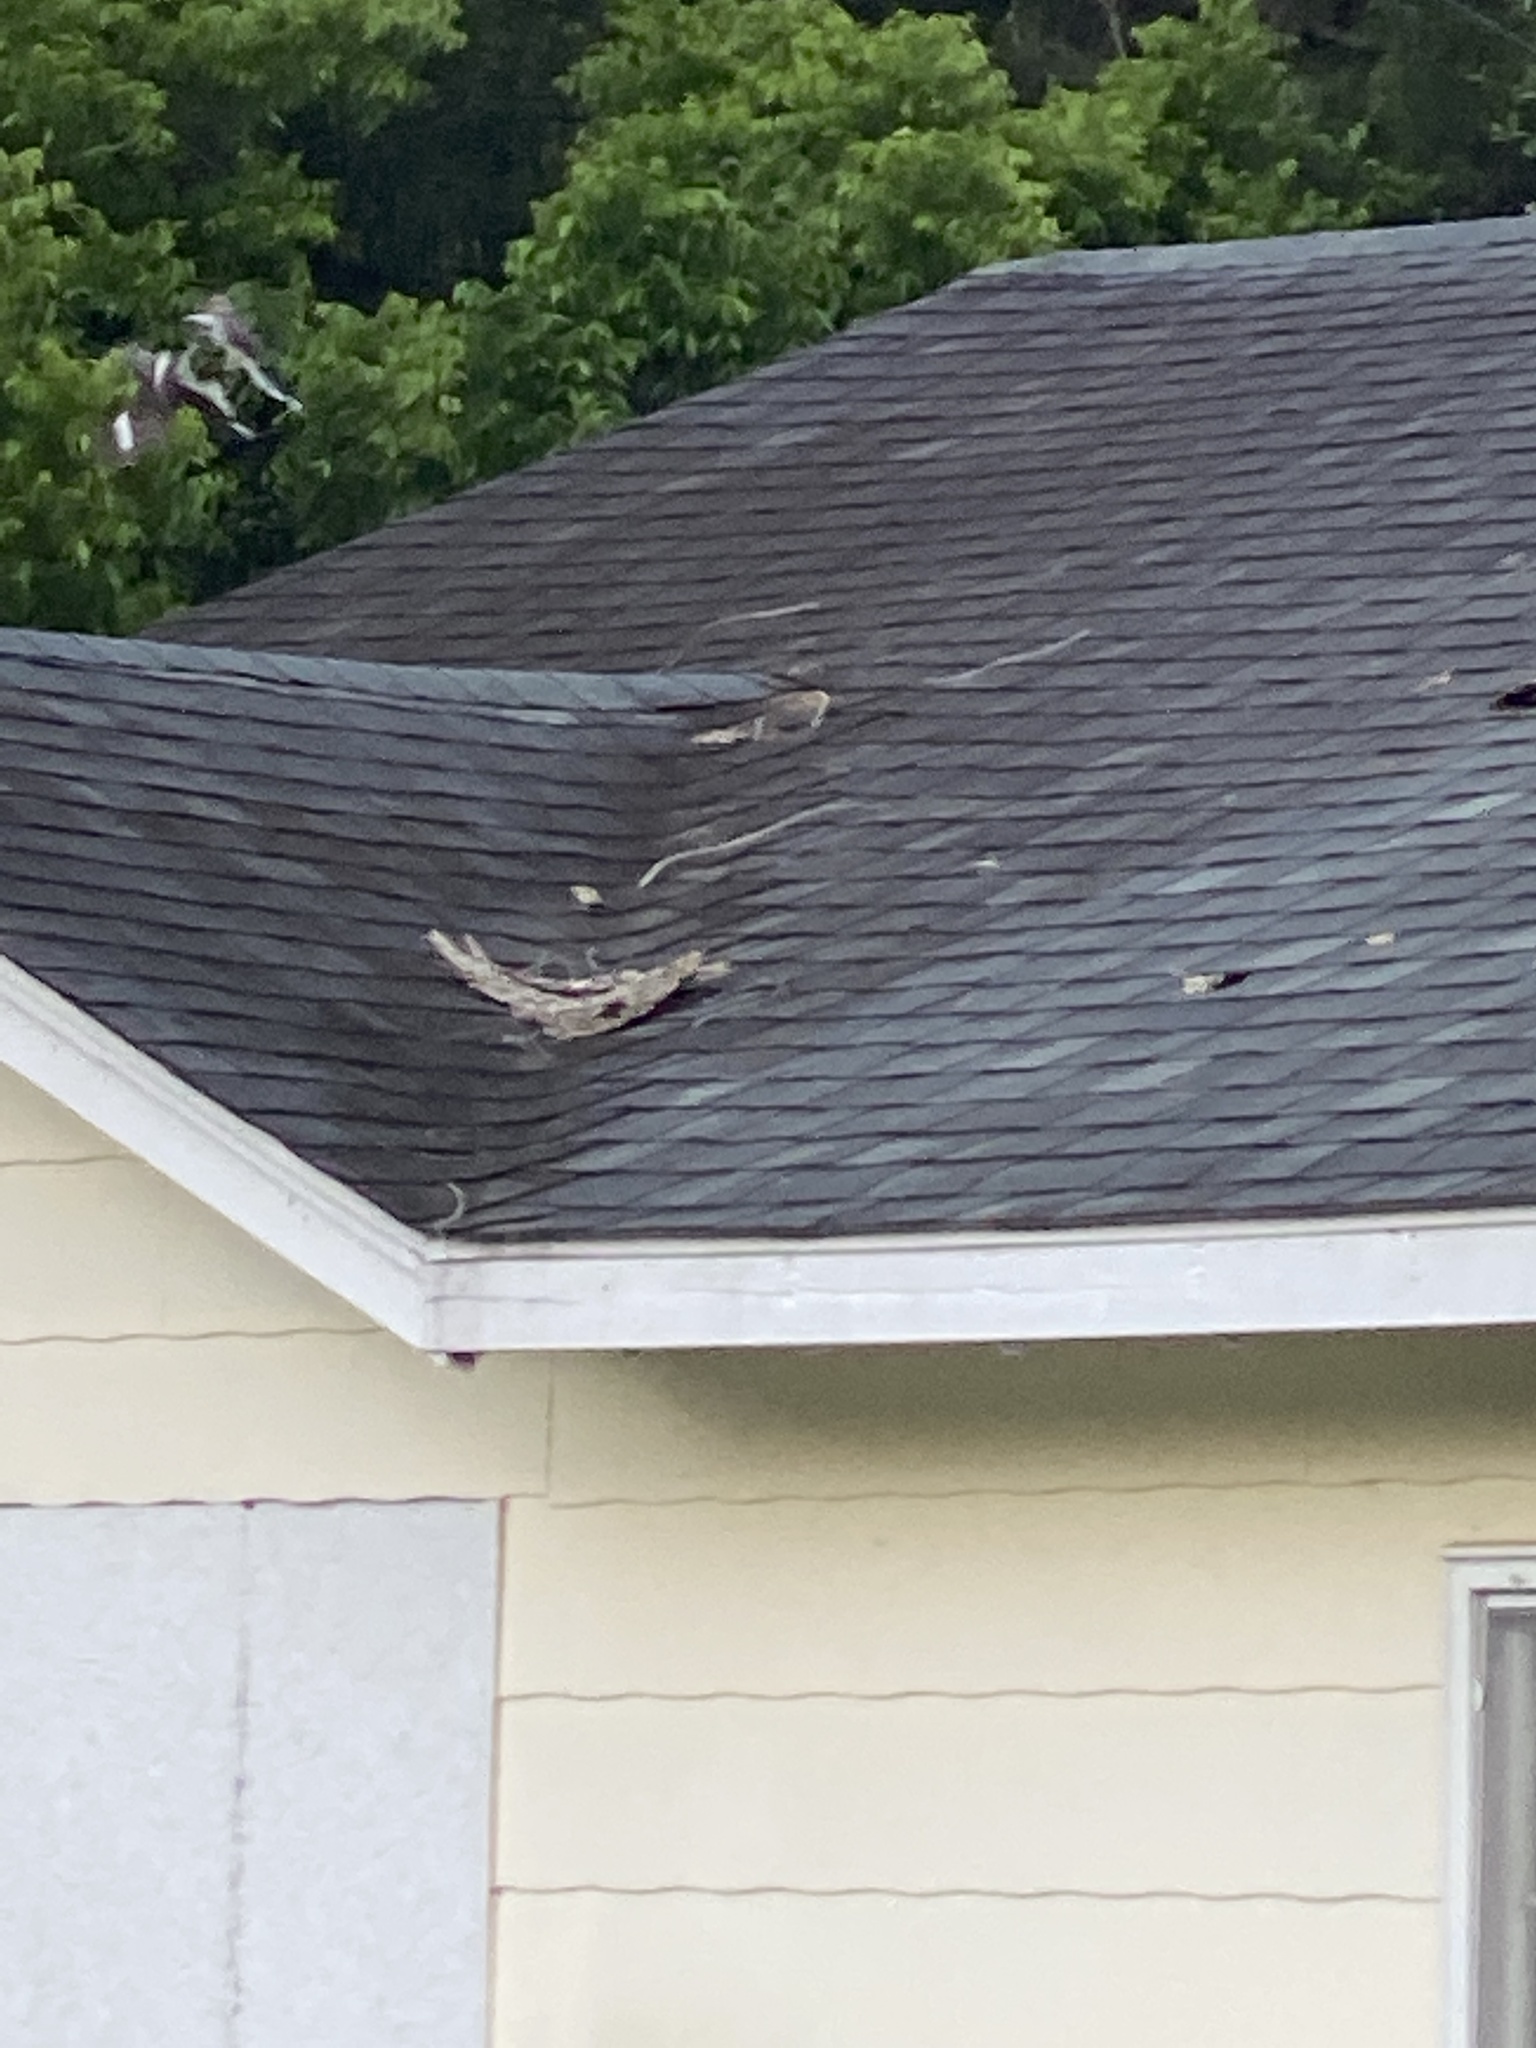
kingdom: Animalia
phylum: Chordata
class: Aves
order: Passeriformes
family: Mimidae
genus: Mimus
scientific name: Mimus polyglottos
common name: Northern mockingbird
